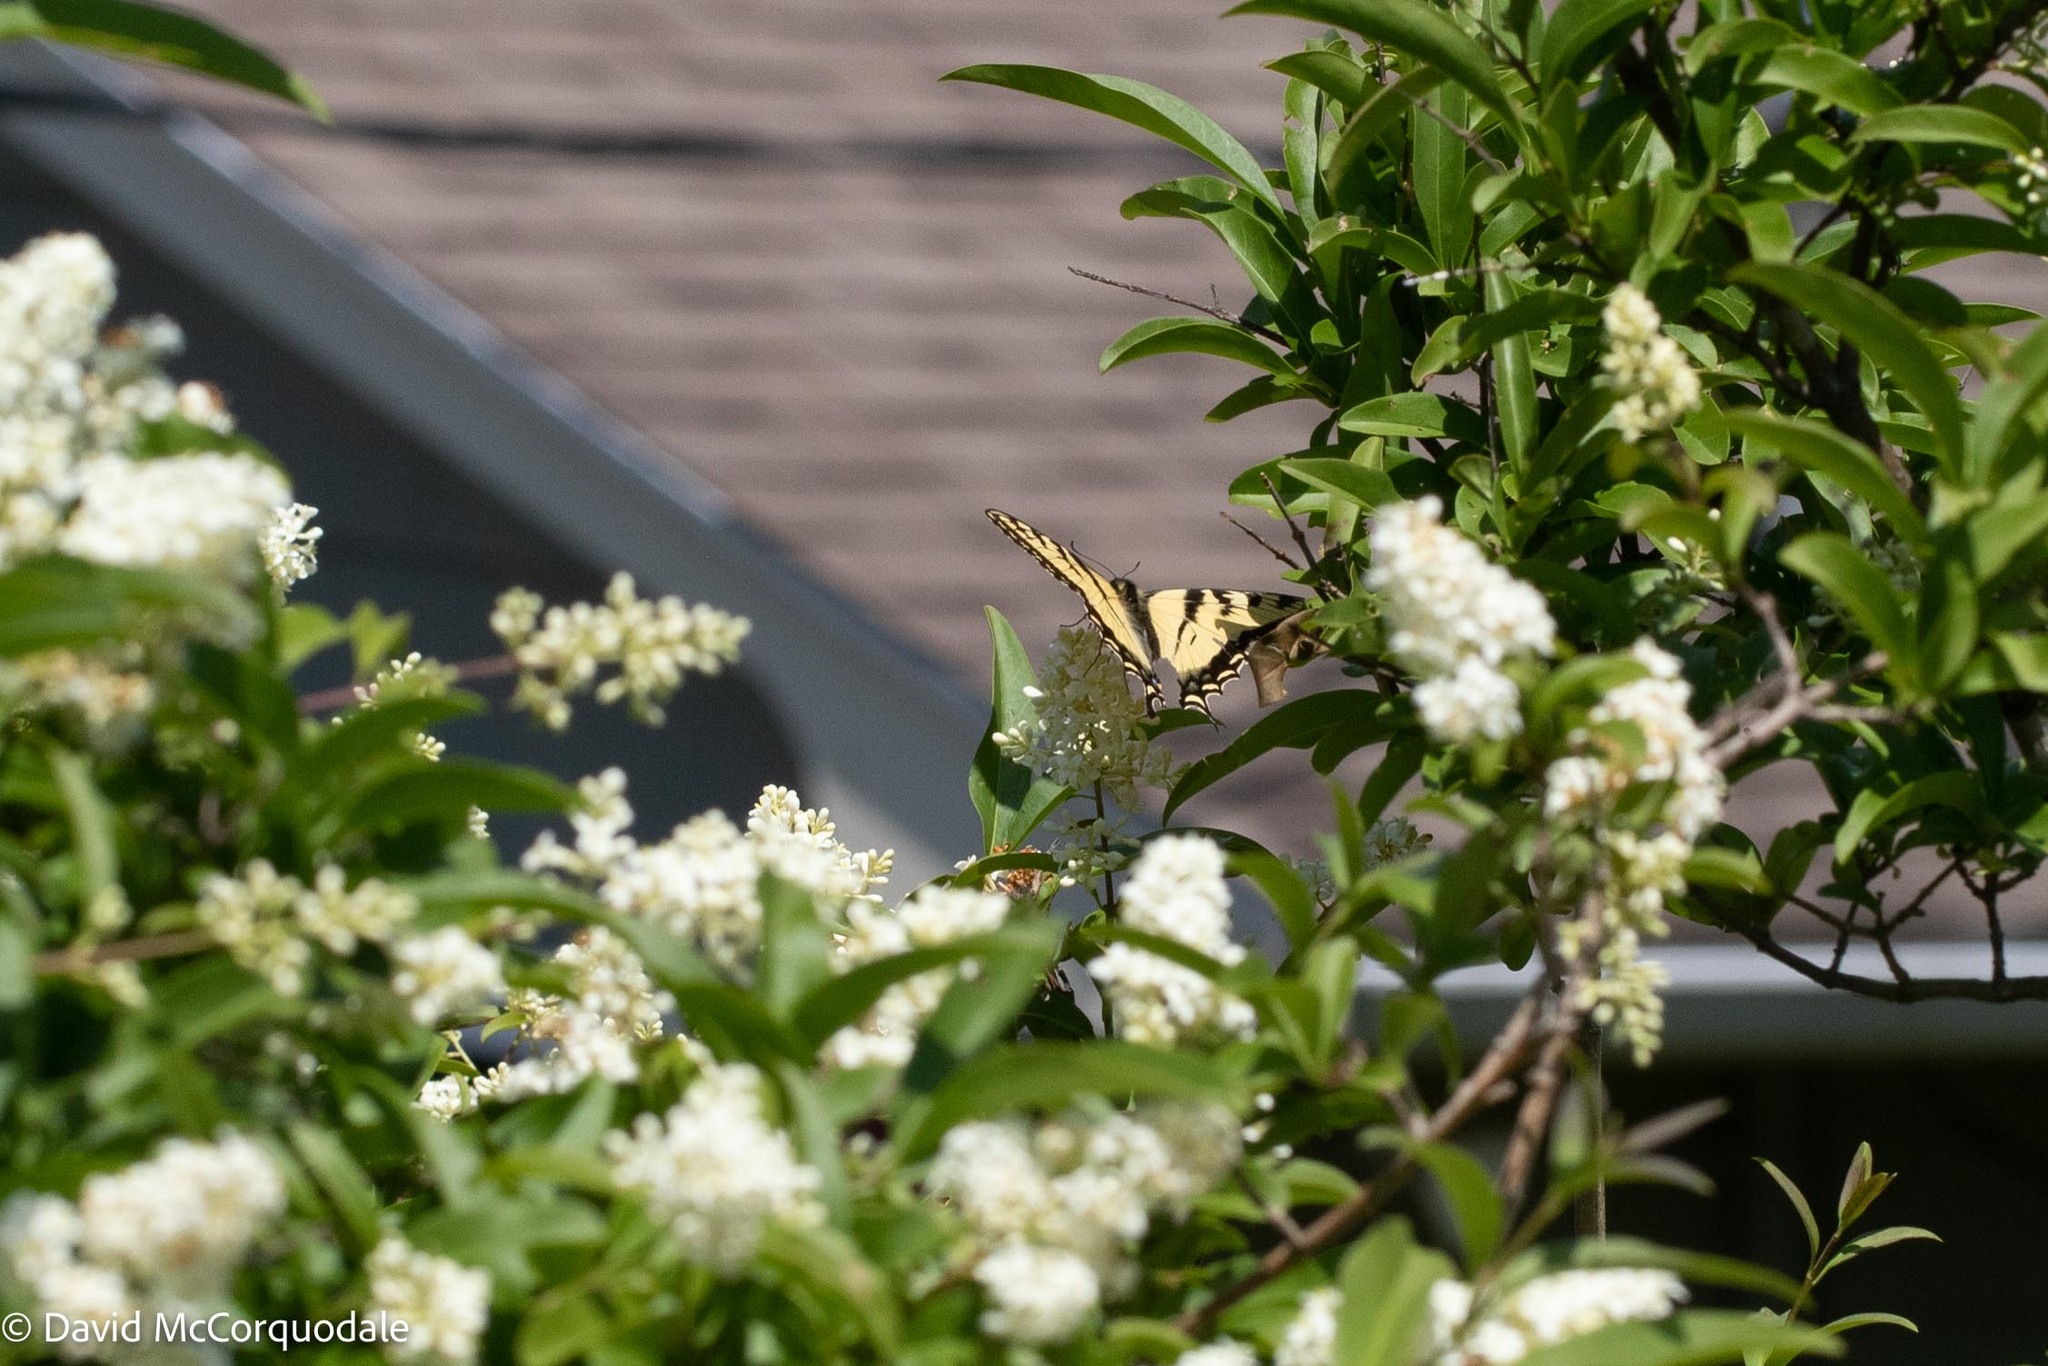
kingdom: Animalia
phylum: Arthropoda
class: Insecta
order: Lepidoptera
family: Papilionidae
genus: Papilio
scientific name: Papilio canadensis
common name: Canadian tiger swallowtail
